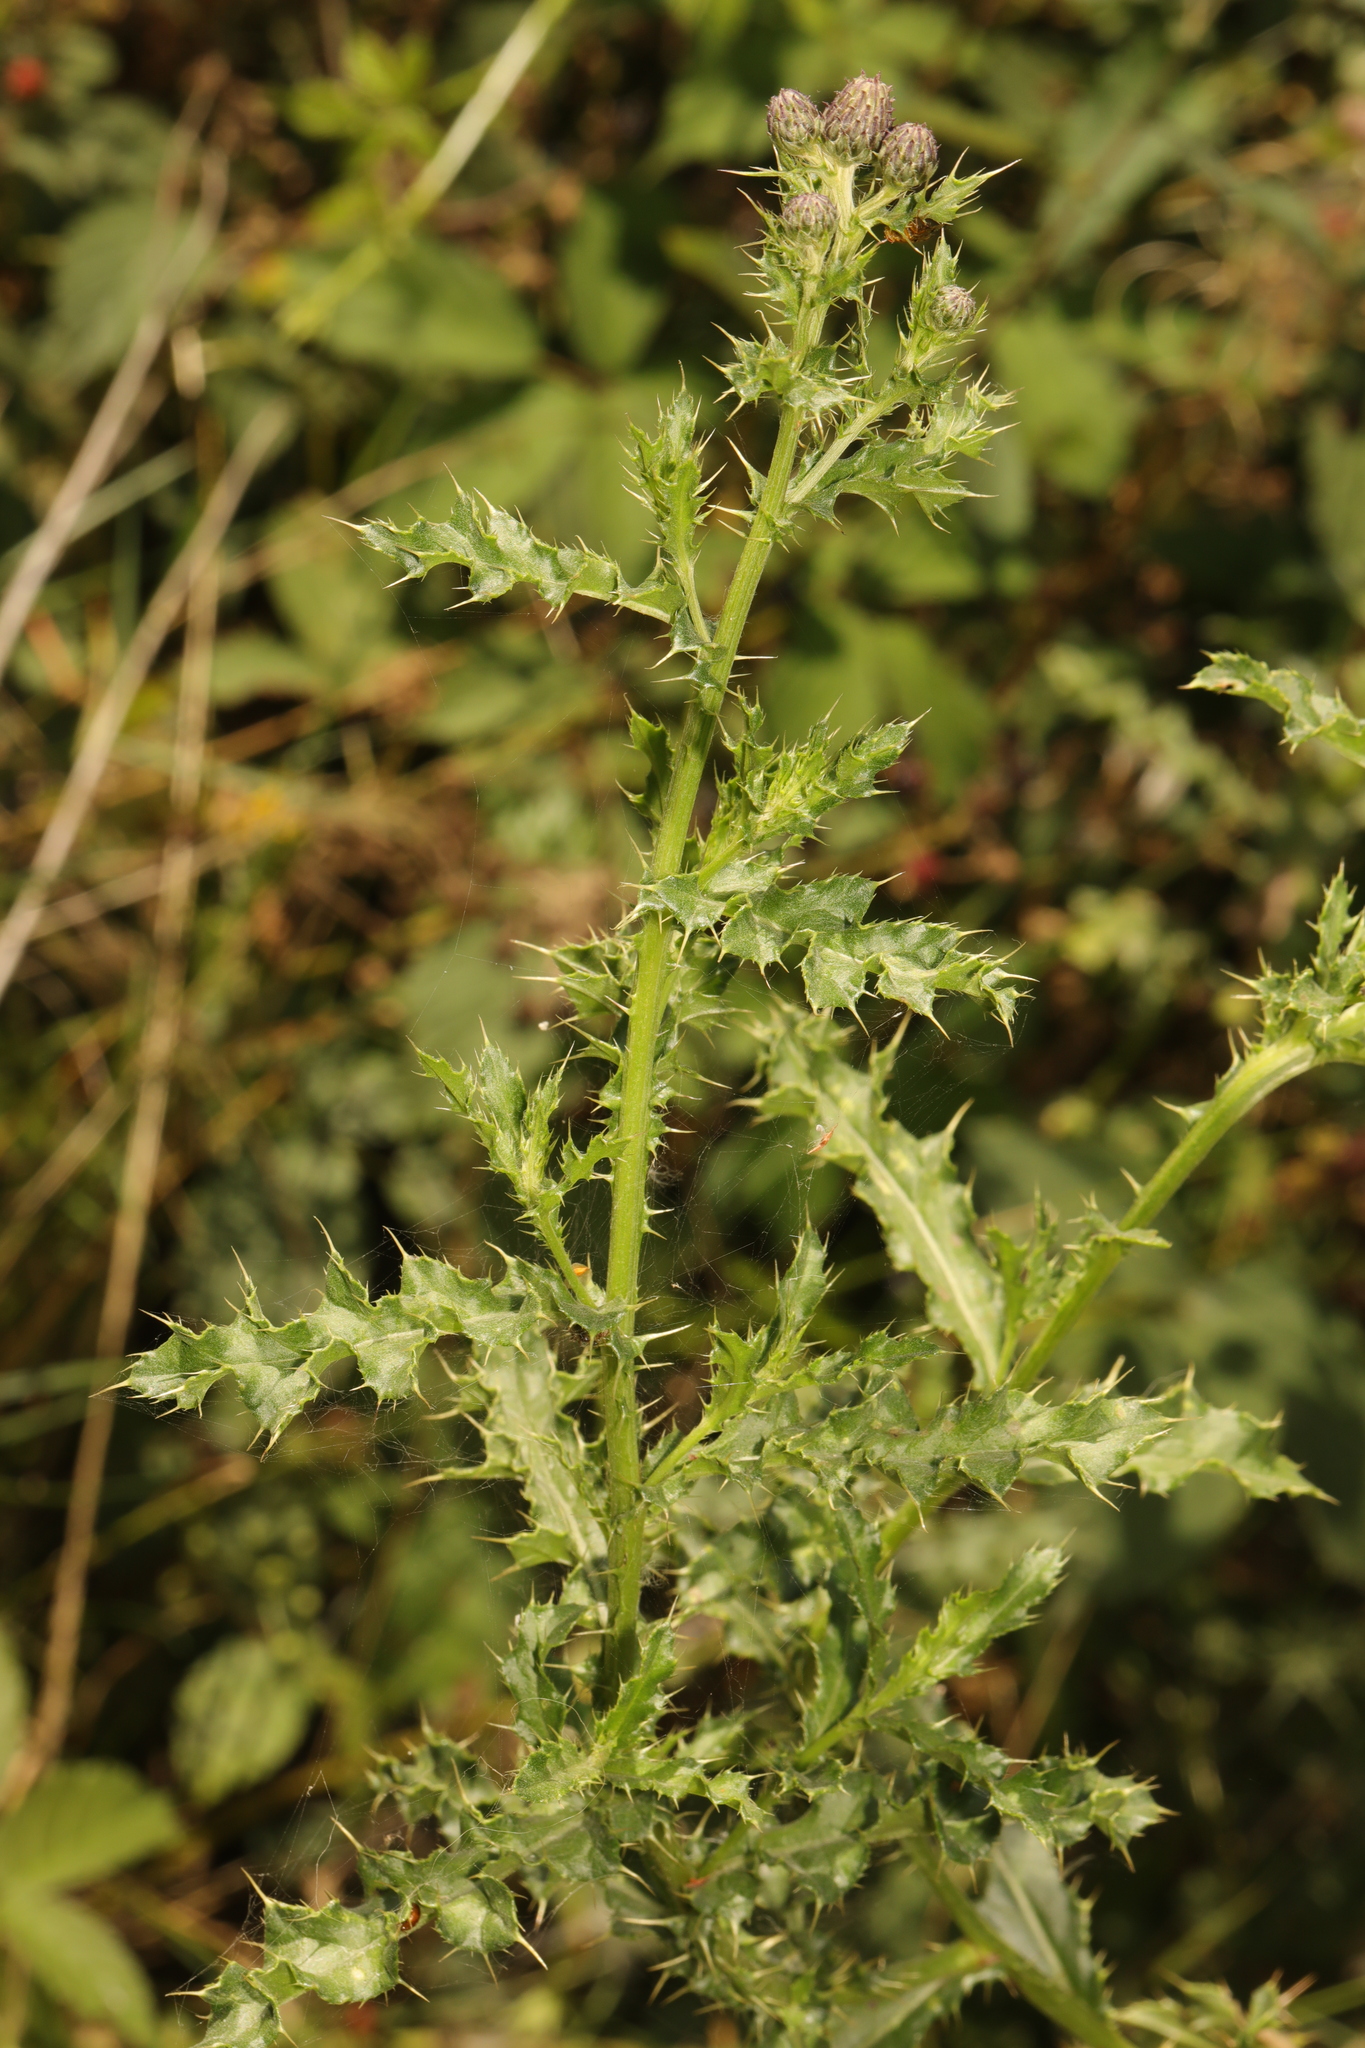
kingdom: Plantae
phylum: Tracheophyta
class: Magnoliopsida
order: Asterales
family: Asteraceae
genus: Cirsium
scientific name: Cirsium arvense
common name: Creeping thistle
